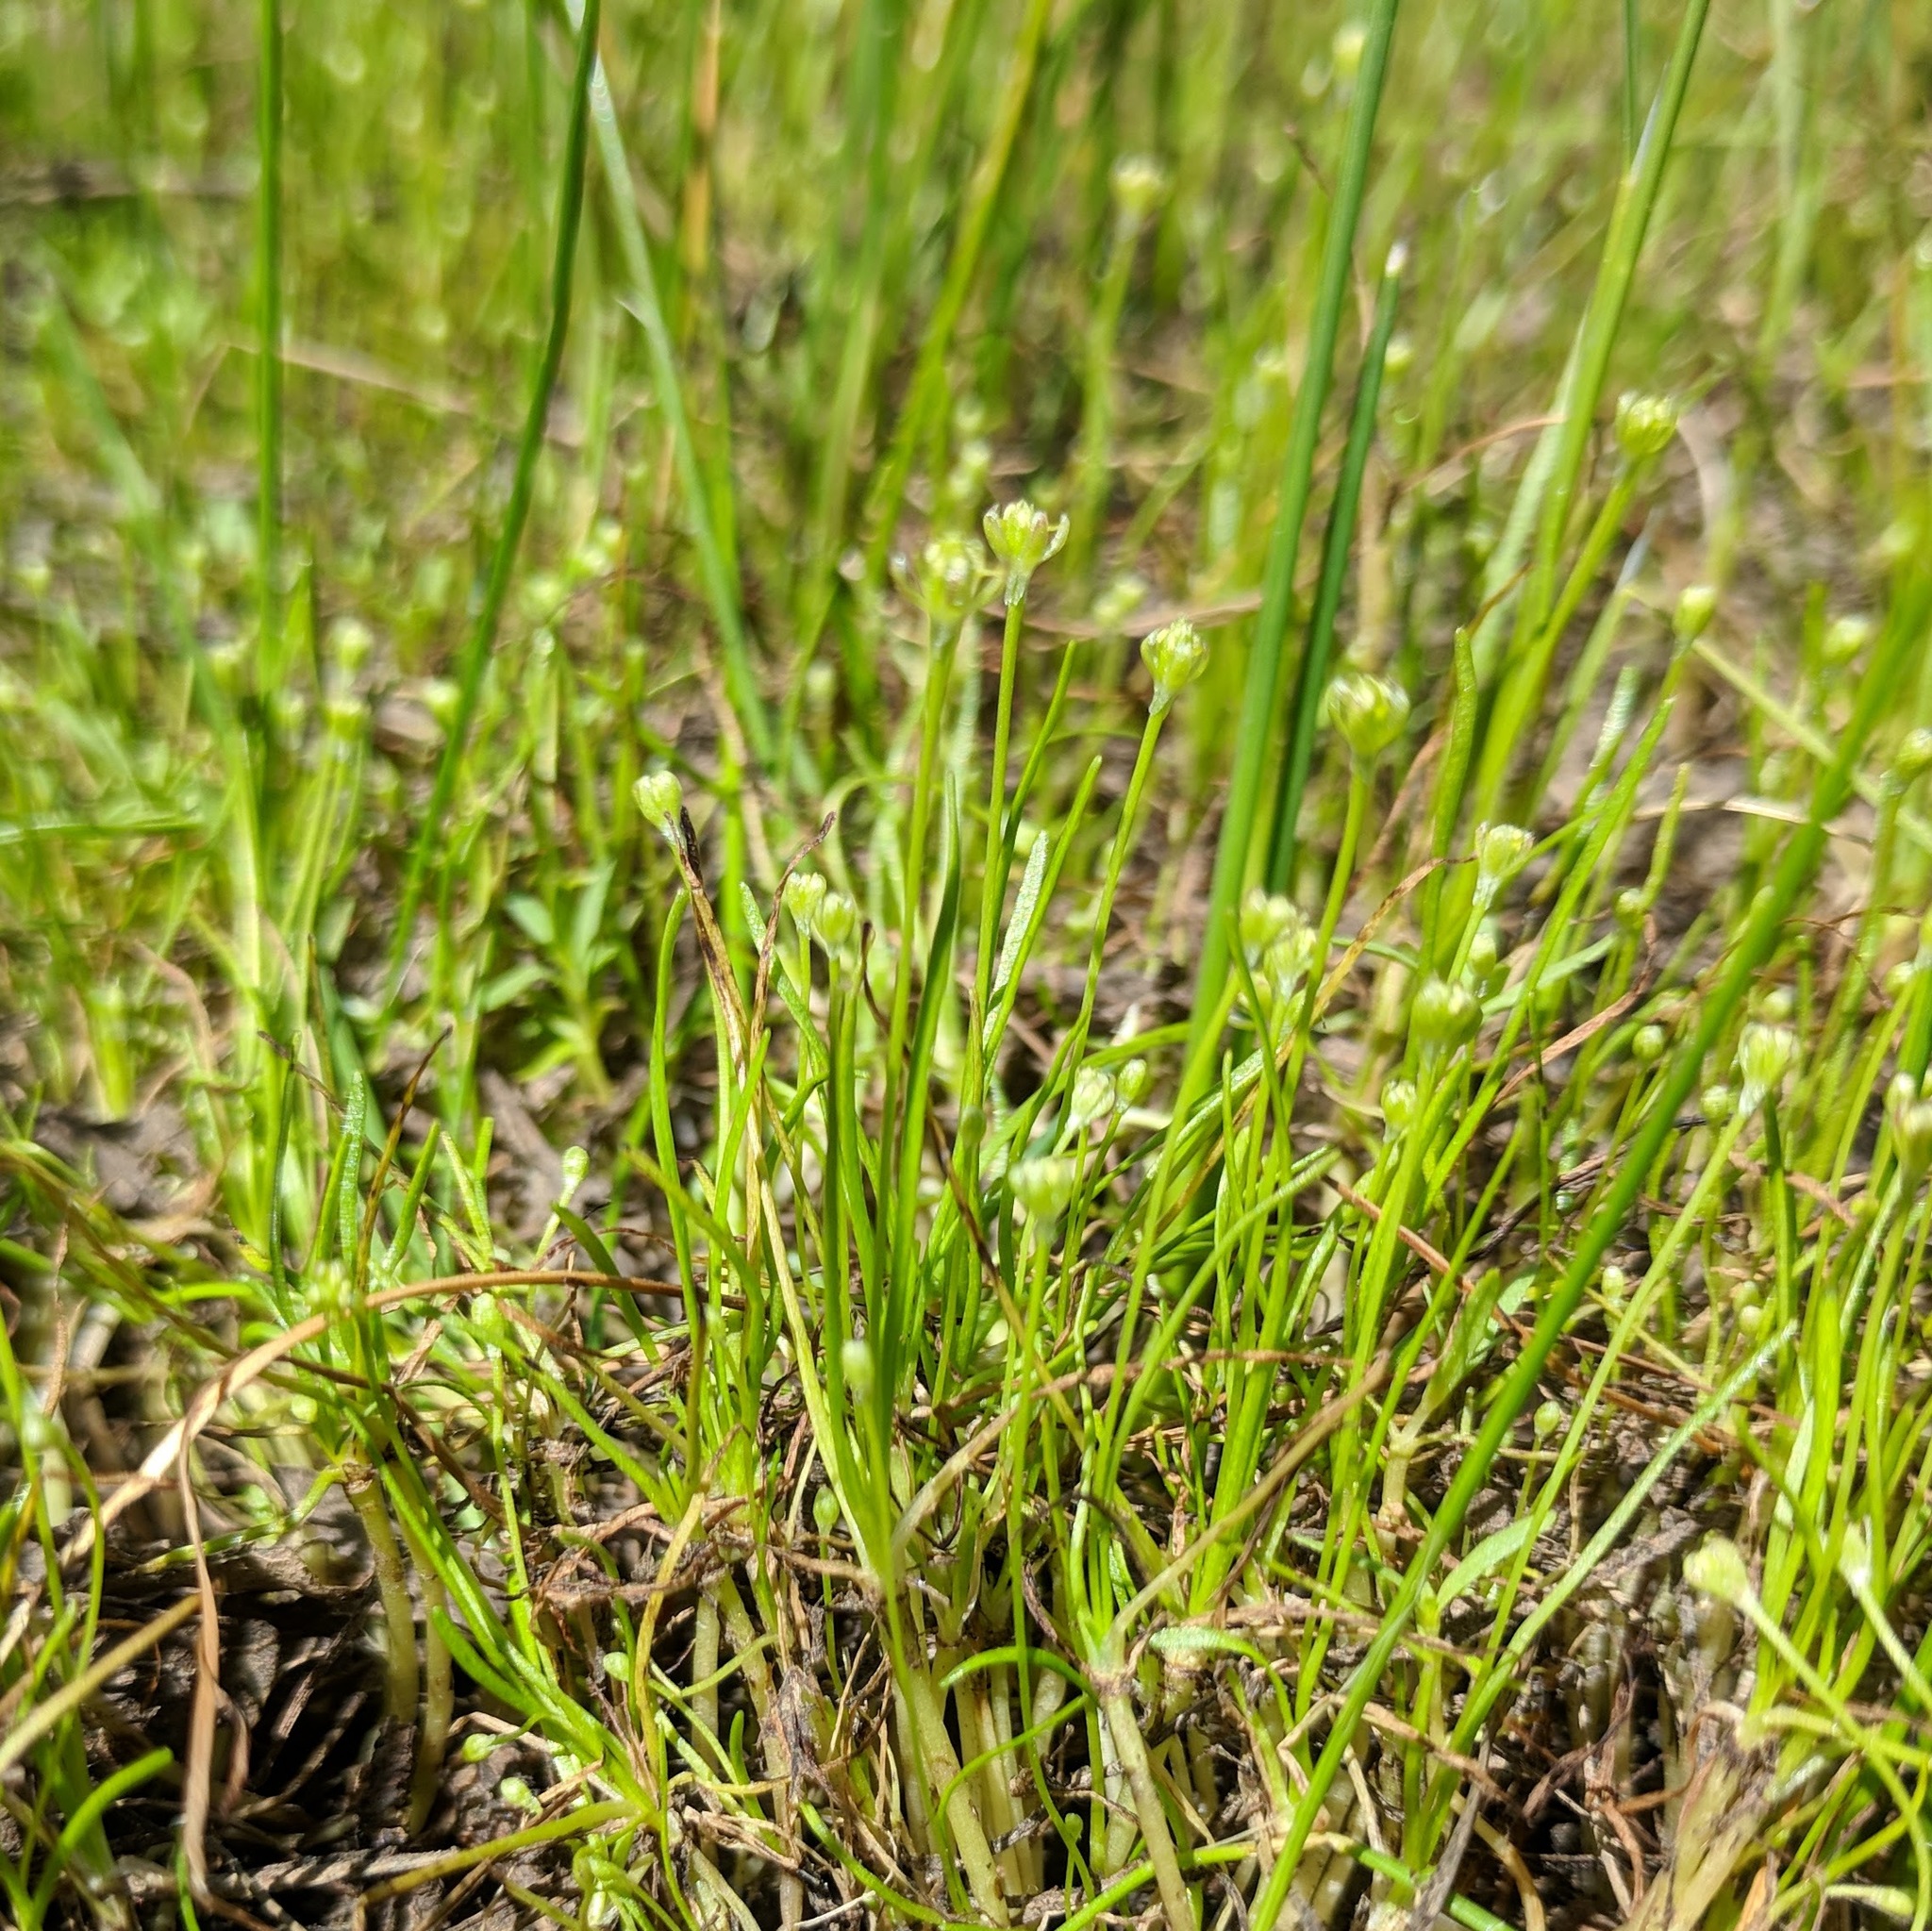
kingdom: Plantae
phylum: Tracheophyta
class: Magnoliopsida
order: Ranunculales
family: Ranunculaceae
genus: Myosurus
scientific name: Myosurus minimus
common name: Mousetail
